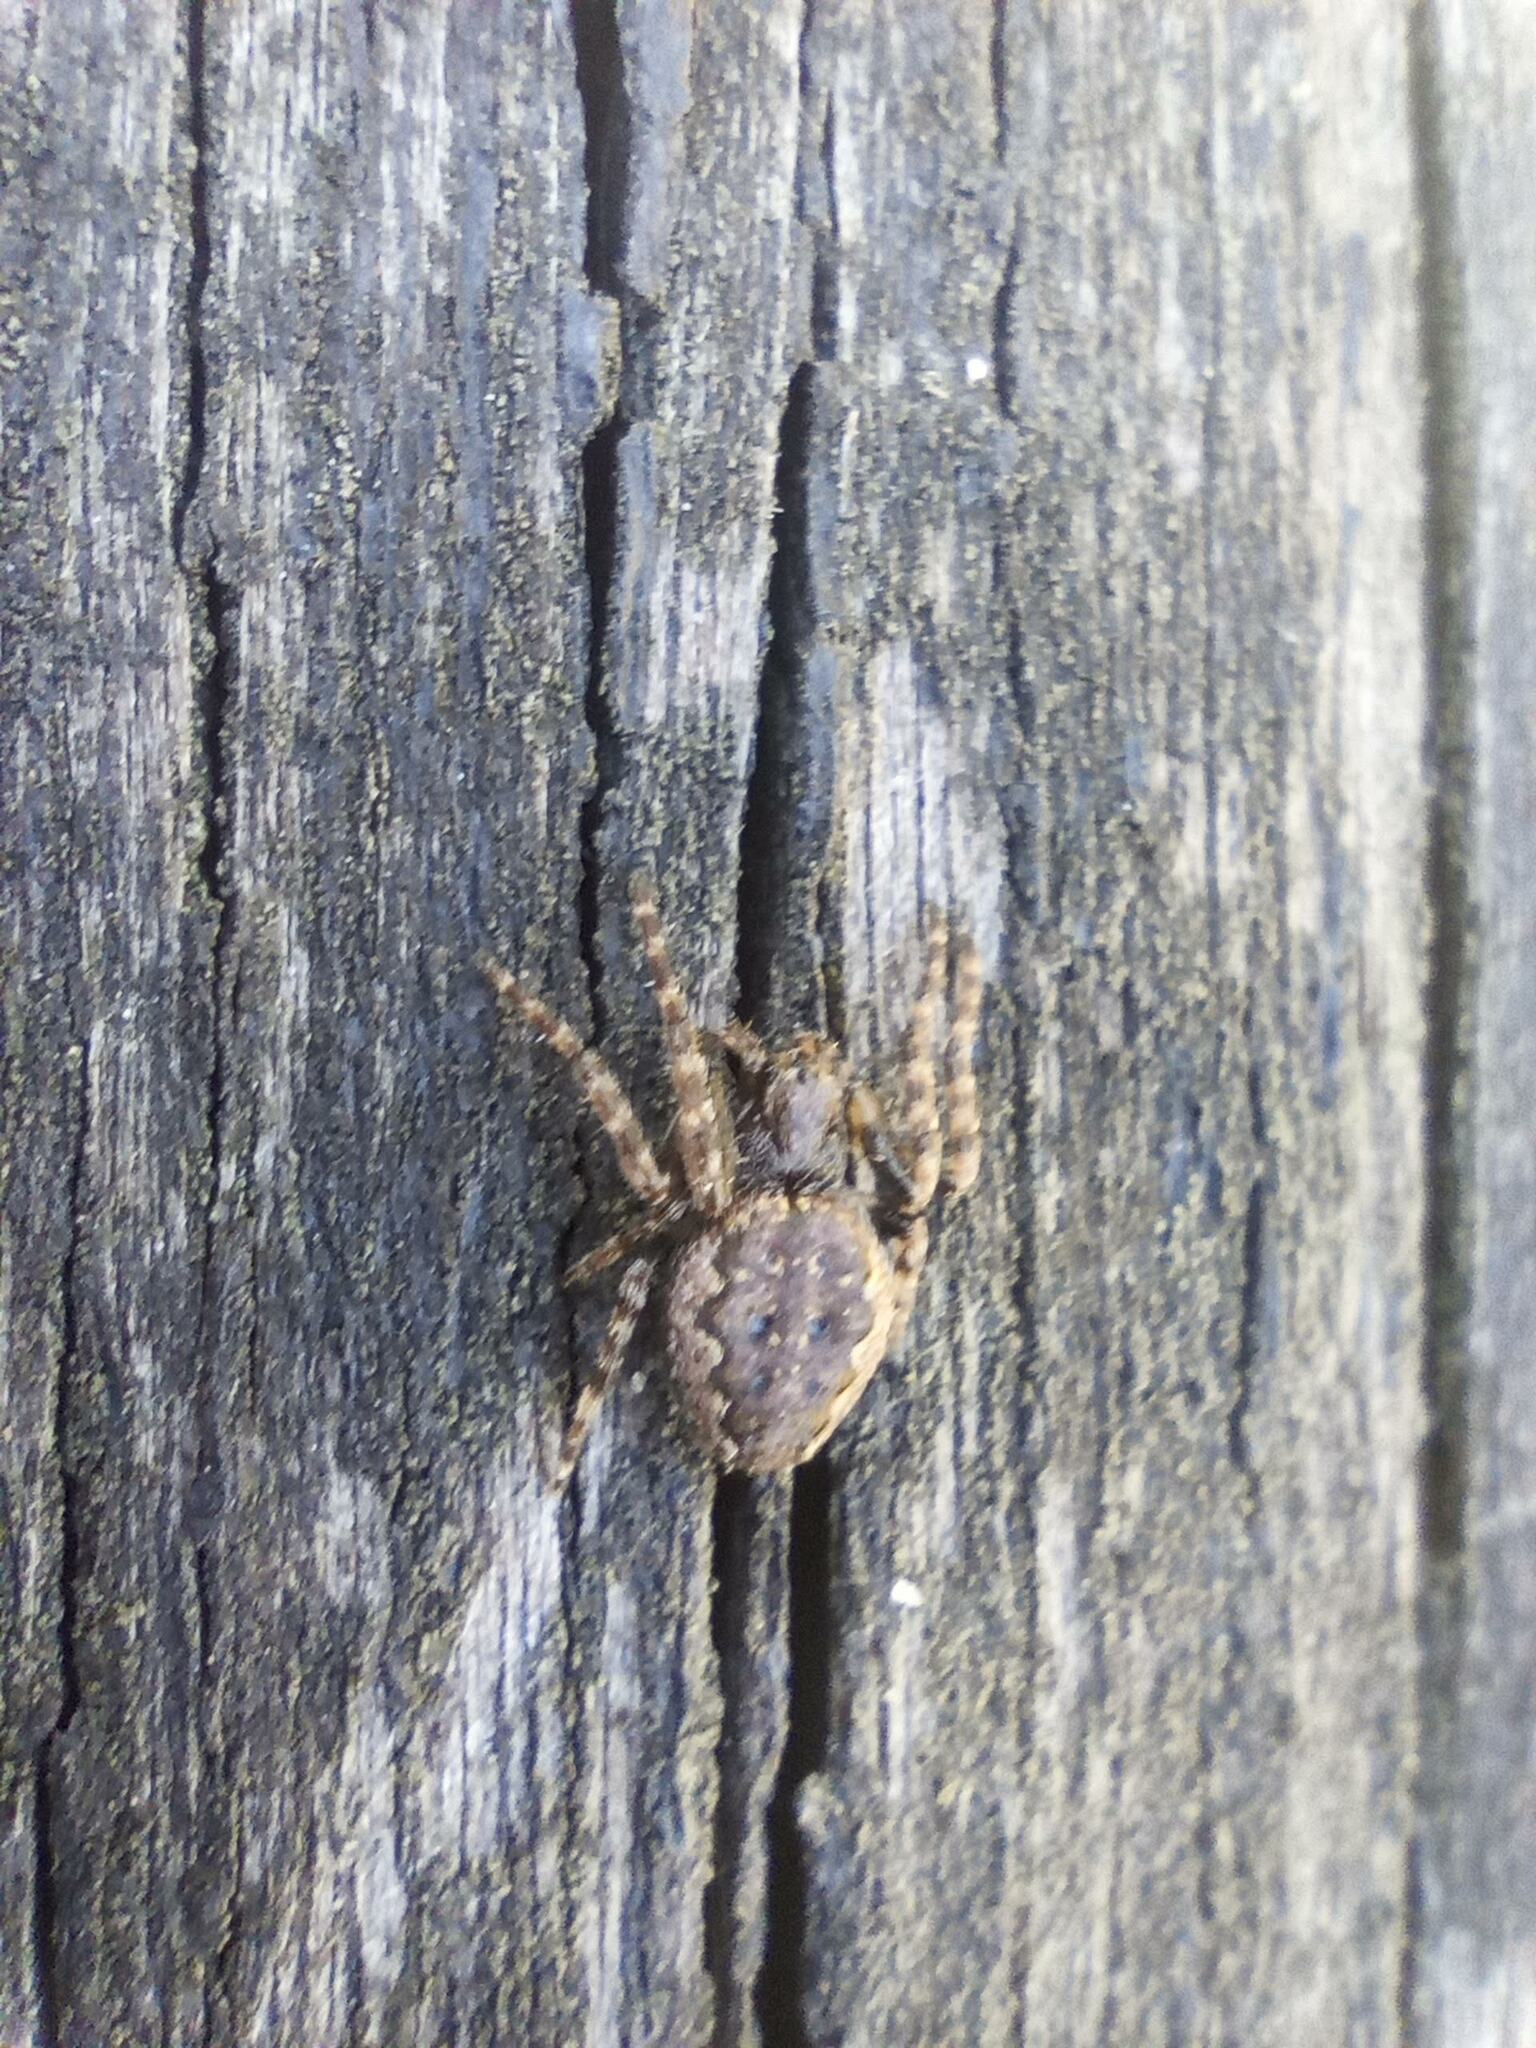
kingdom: Animalia
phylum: Arthropoda
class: Arachnida
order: Araneae
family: Araneidae
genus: Nuctenea
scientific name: Nuctenea umbratica
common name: Toad spider
